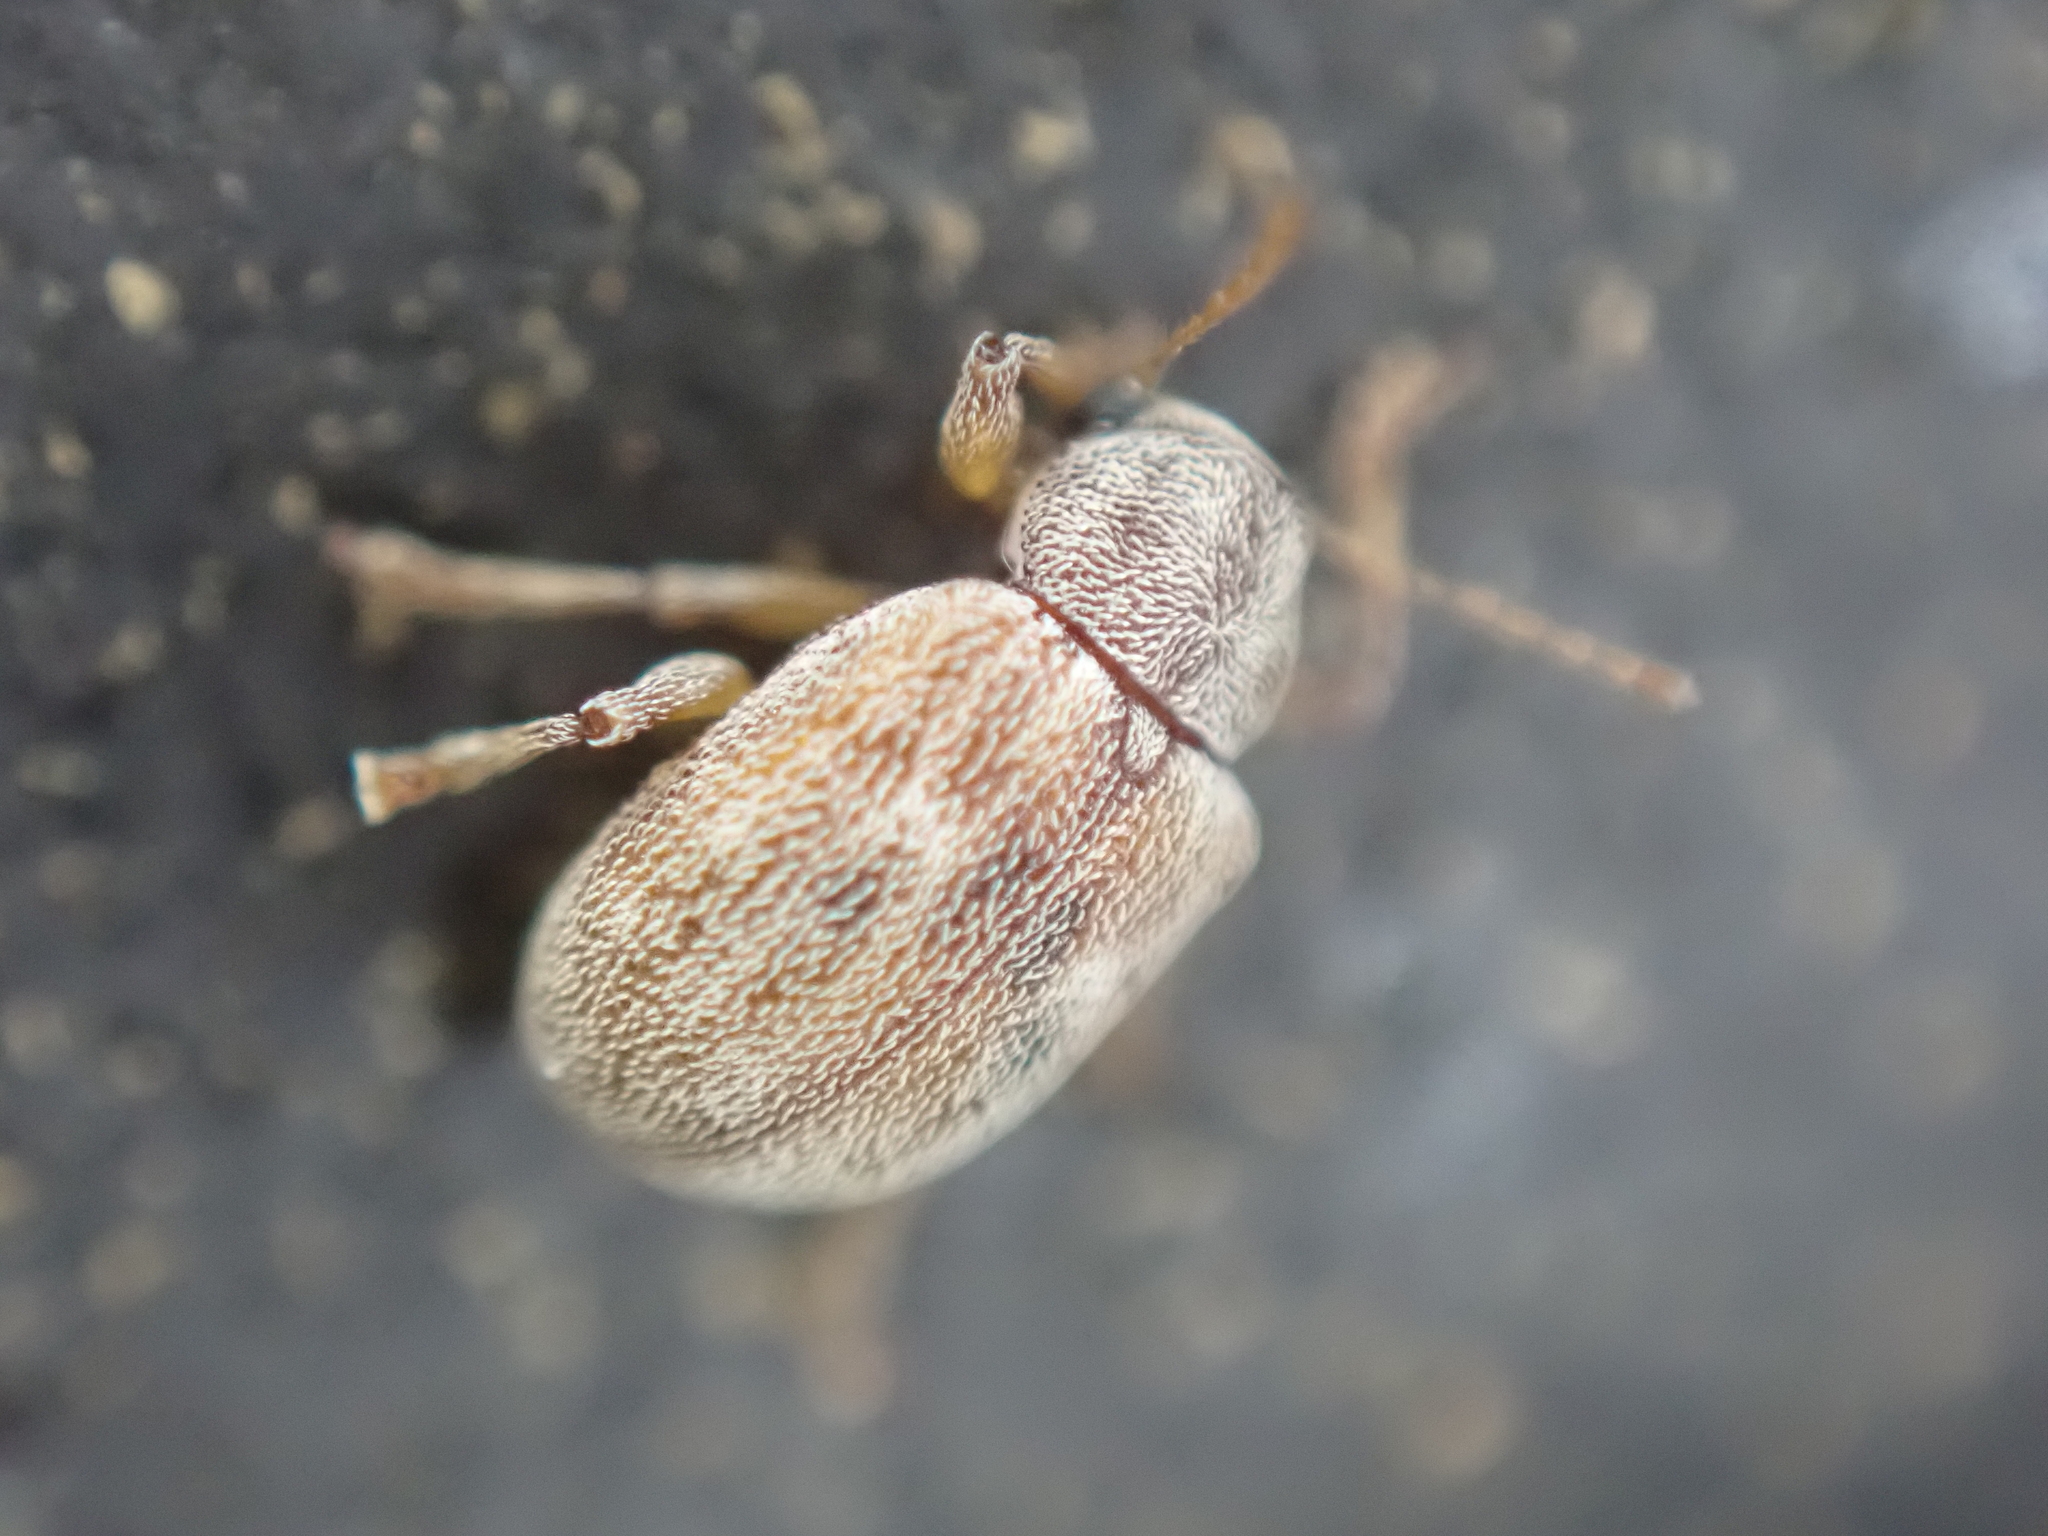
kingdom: Animalia
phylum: Arthropoda
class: Insecta
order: Coleoptera
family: Chrysomelidae
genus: Demotina
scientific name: Demotina modesta
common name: Leaf beetle
